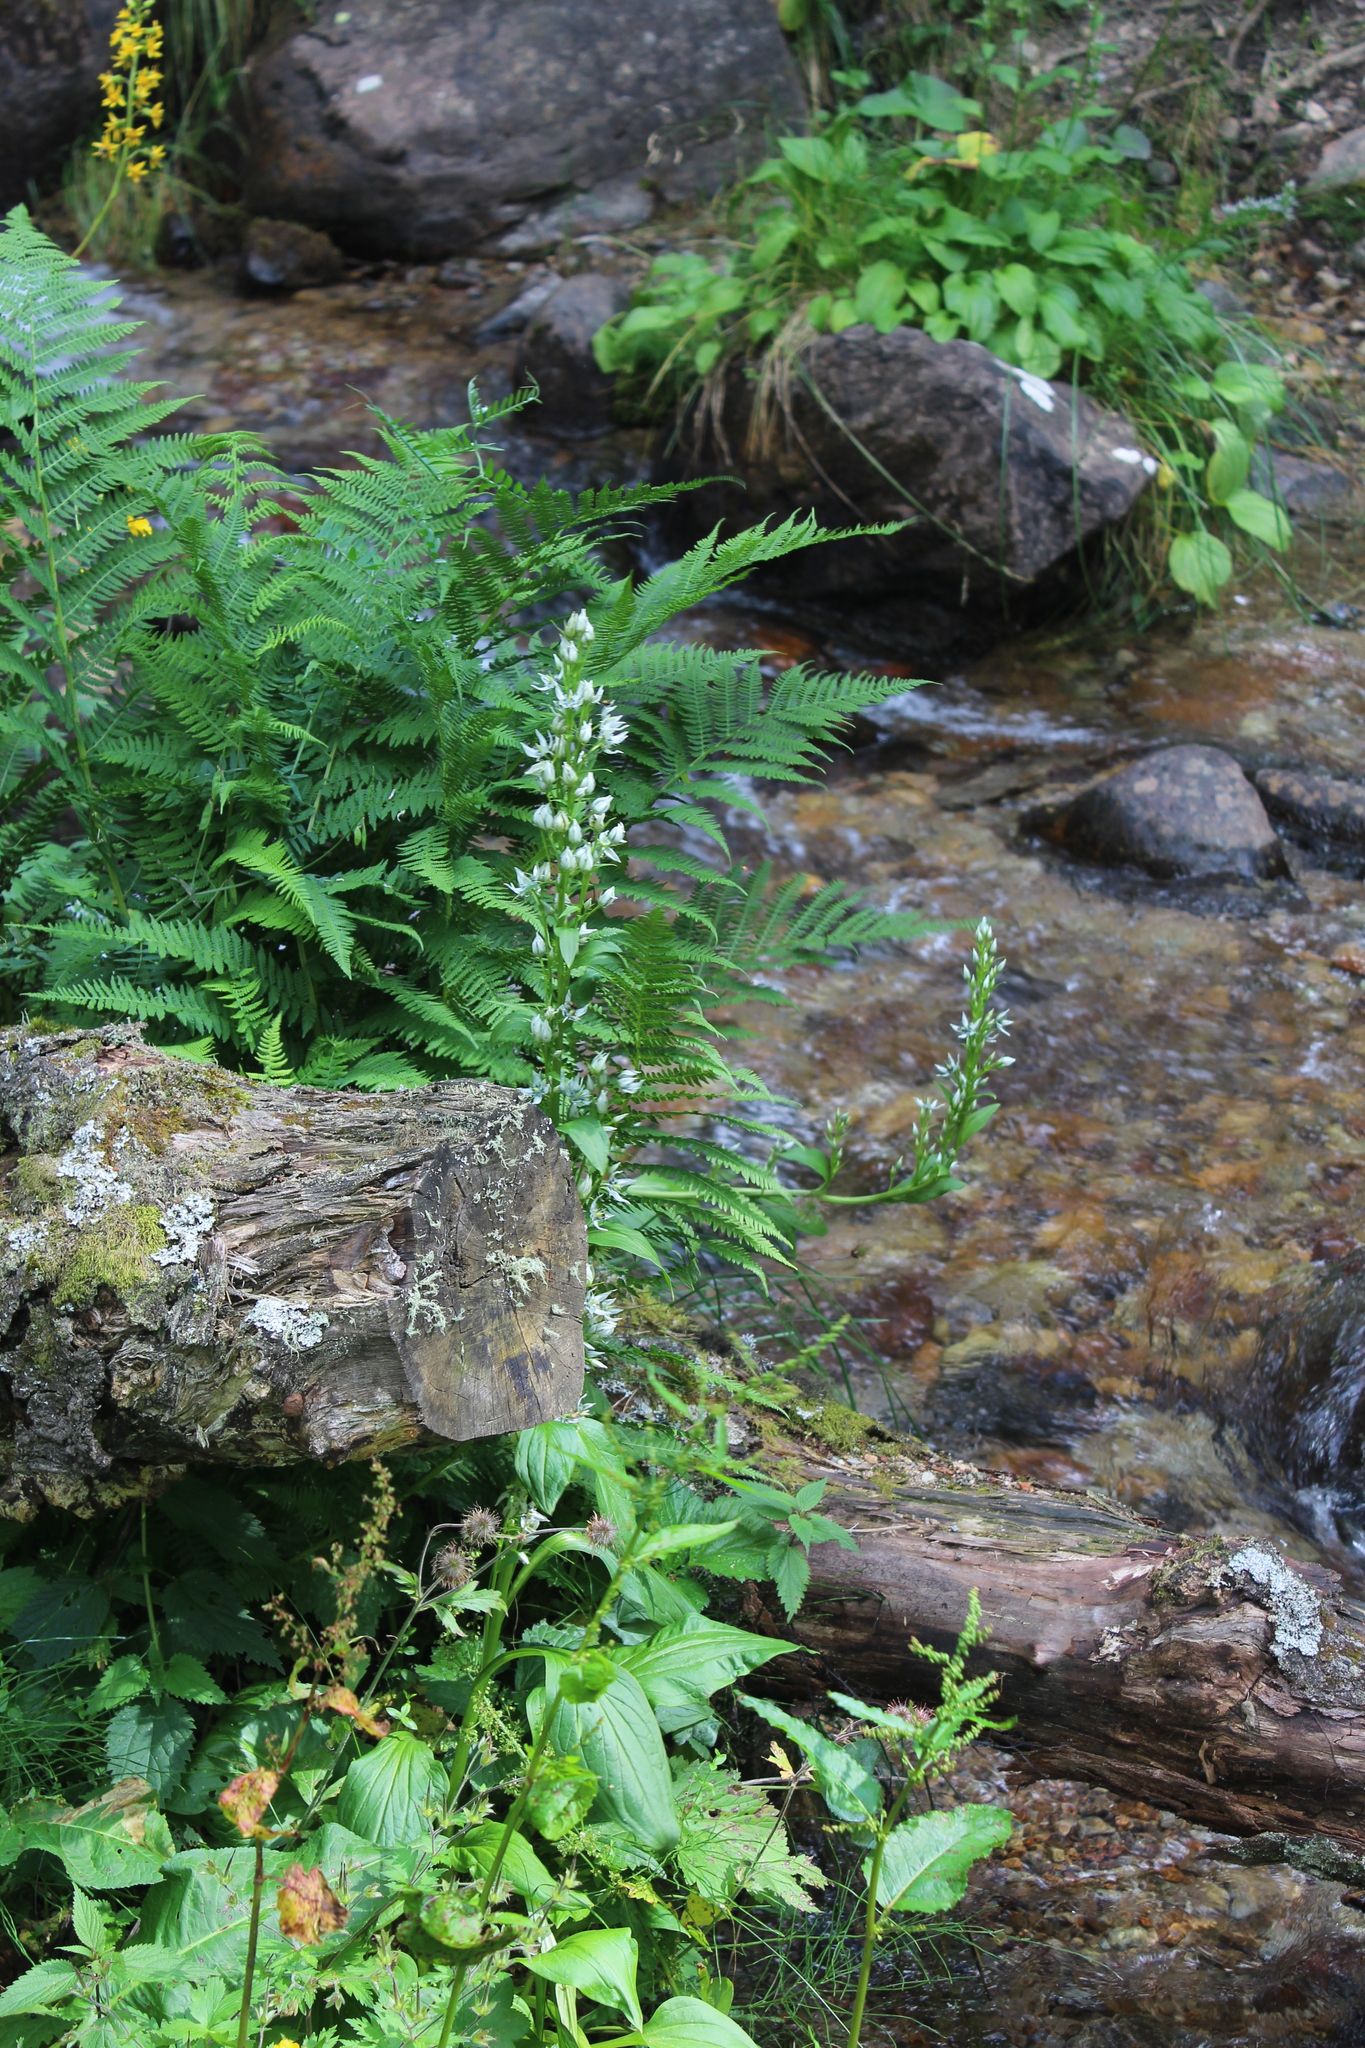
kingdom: Plantae
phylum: Tracheophyta
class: Magnoliopsida
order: Gentianales
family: Gentianaceae
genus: Swertia
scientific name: Swertia iberica
